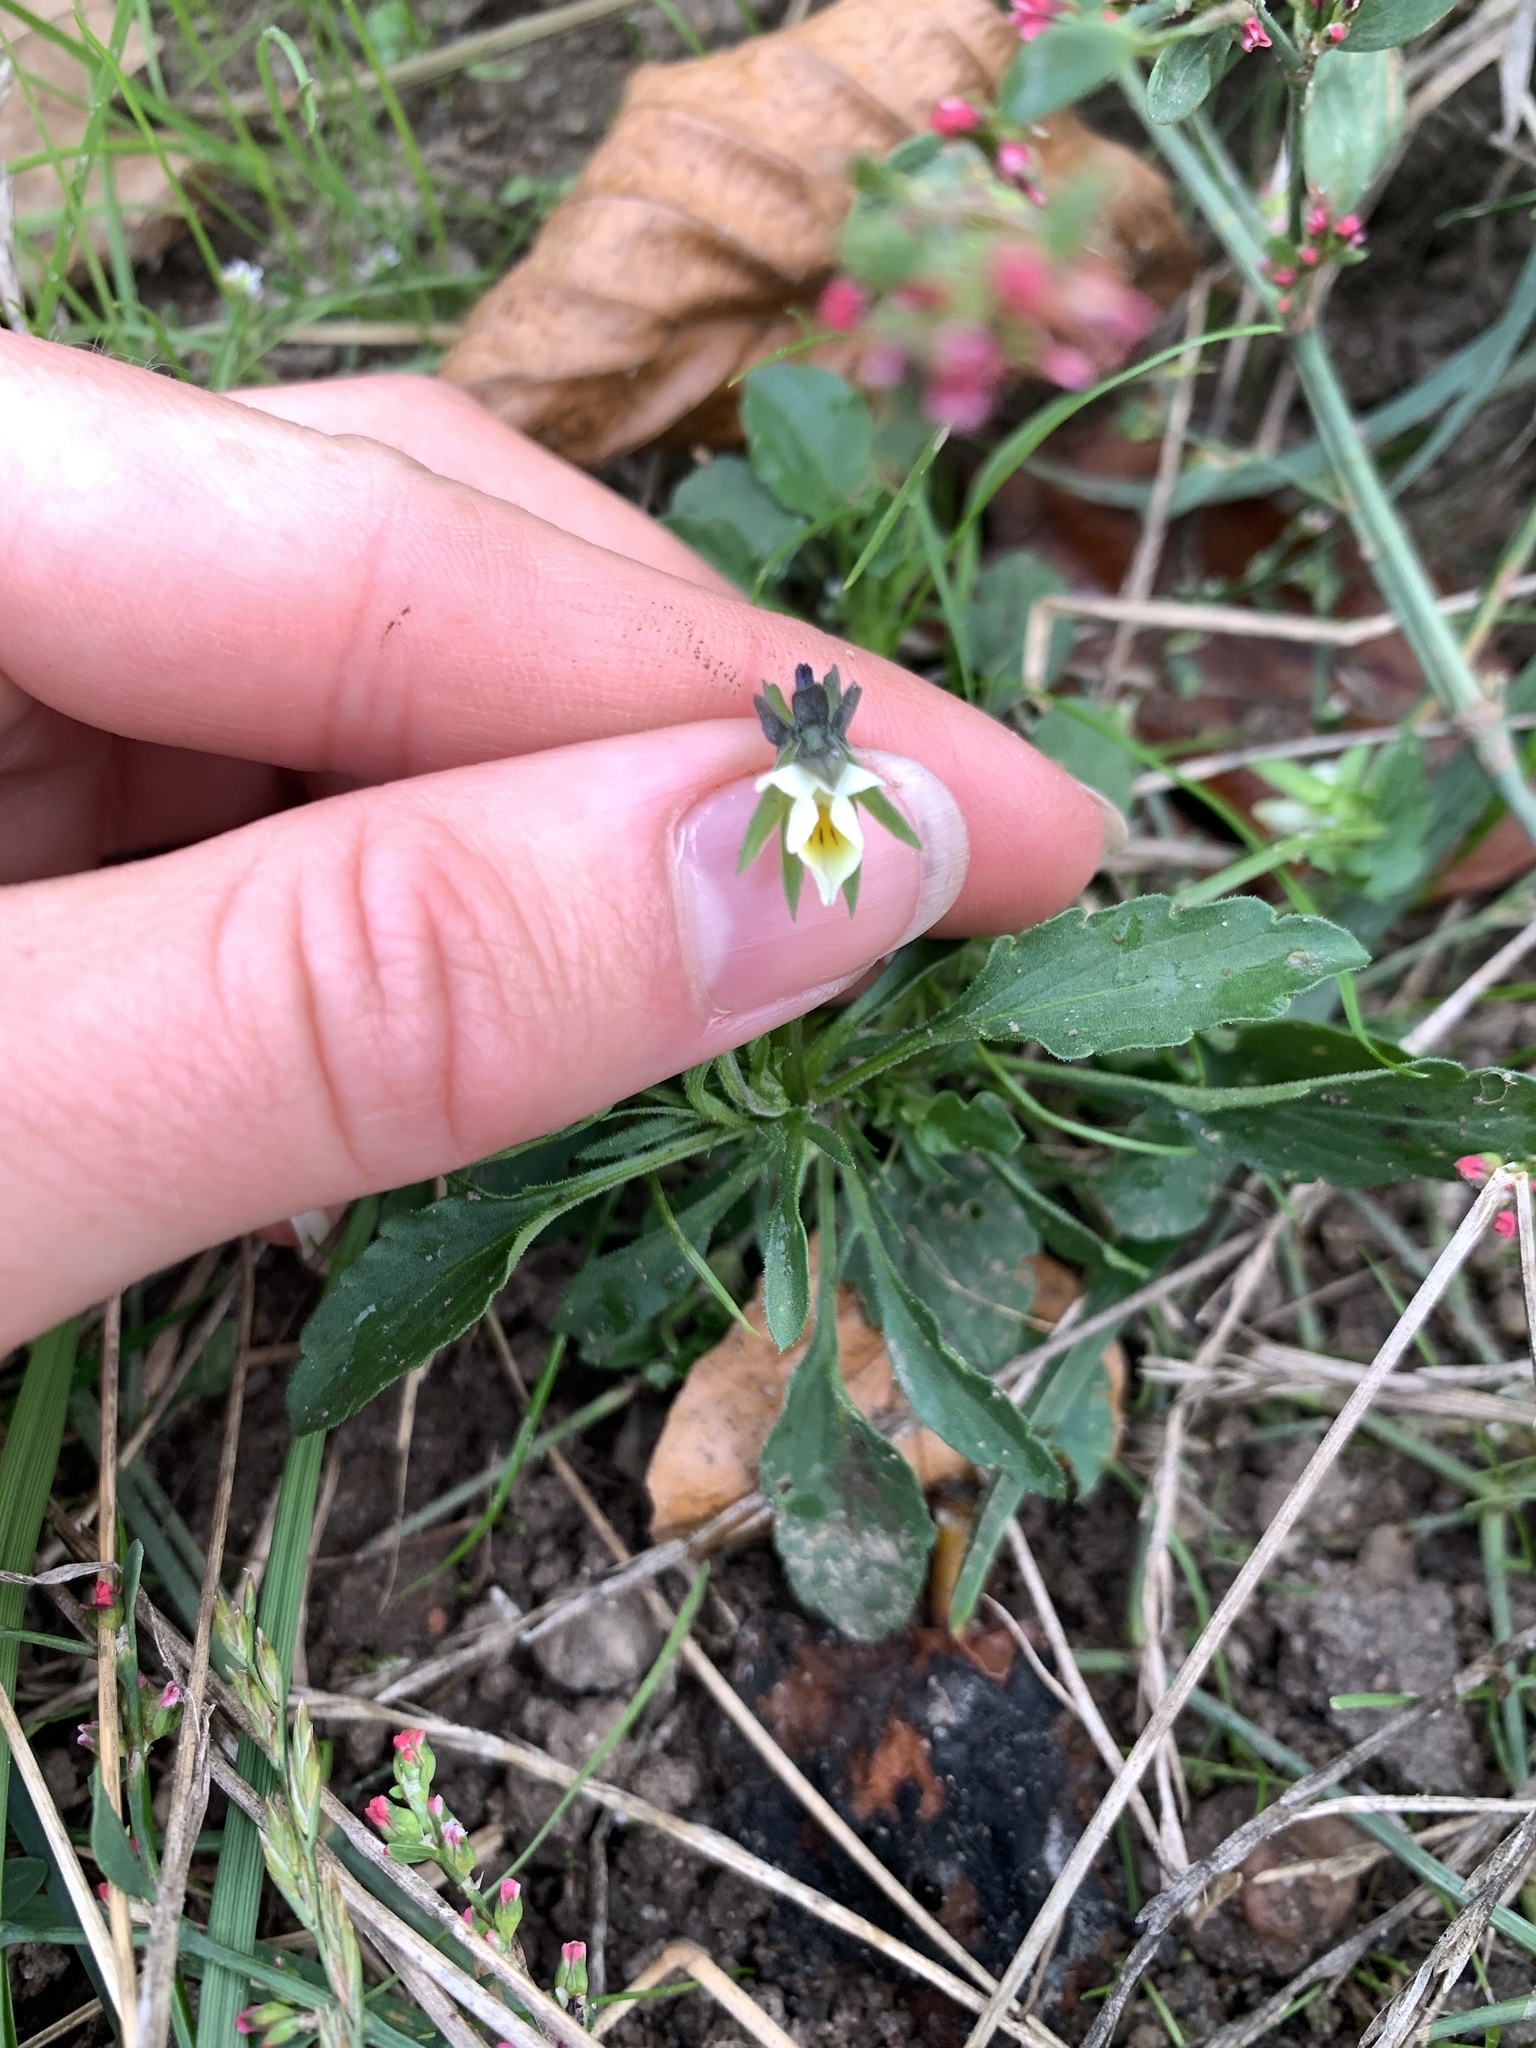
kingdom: Plantae
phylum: Tracheophyta
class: Magnoliopsida
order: Malpighiales
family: Violaceae
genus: Viola
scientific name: Viola arvensis
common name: Field pansy
